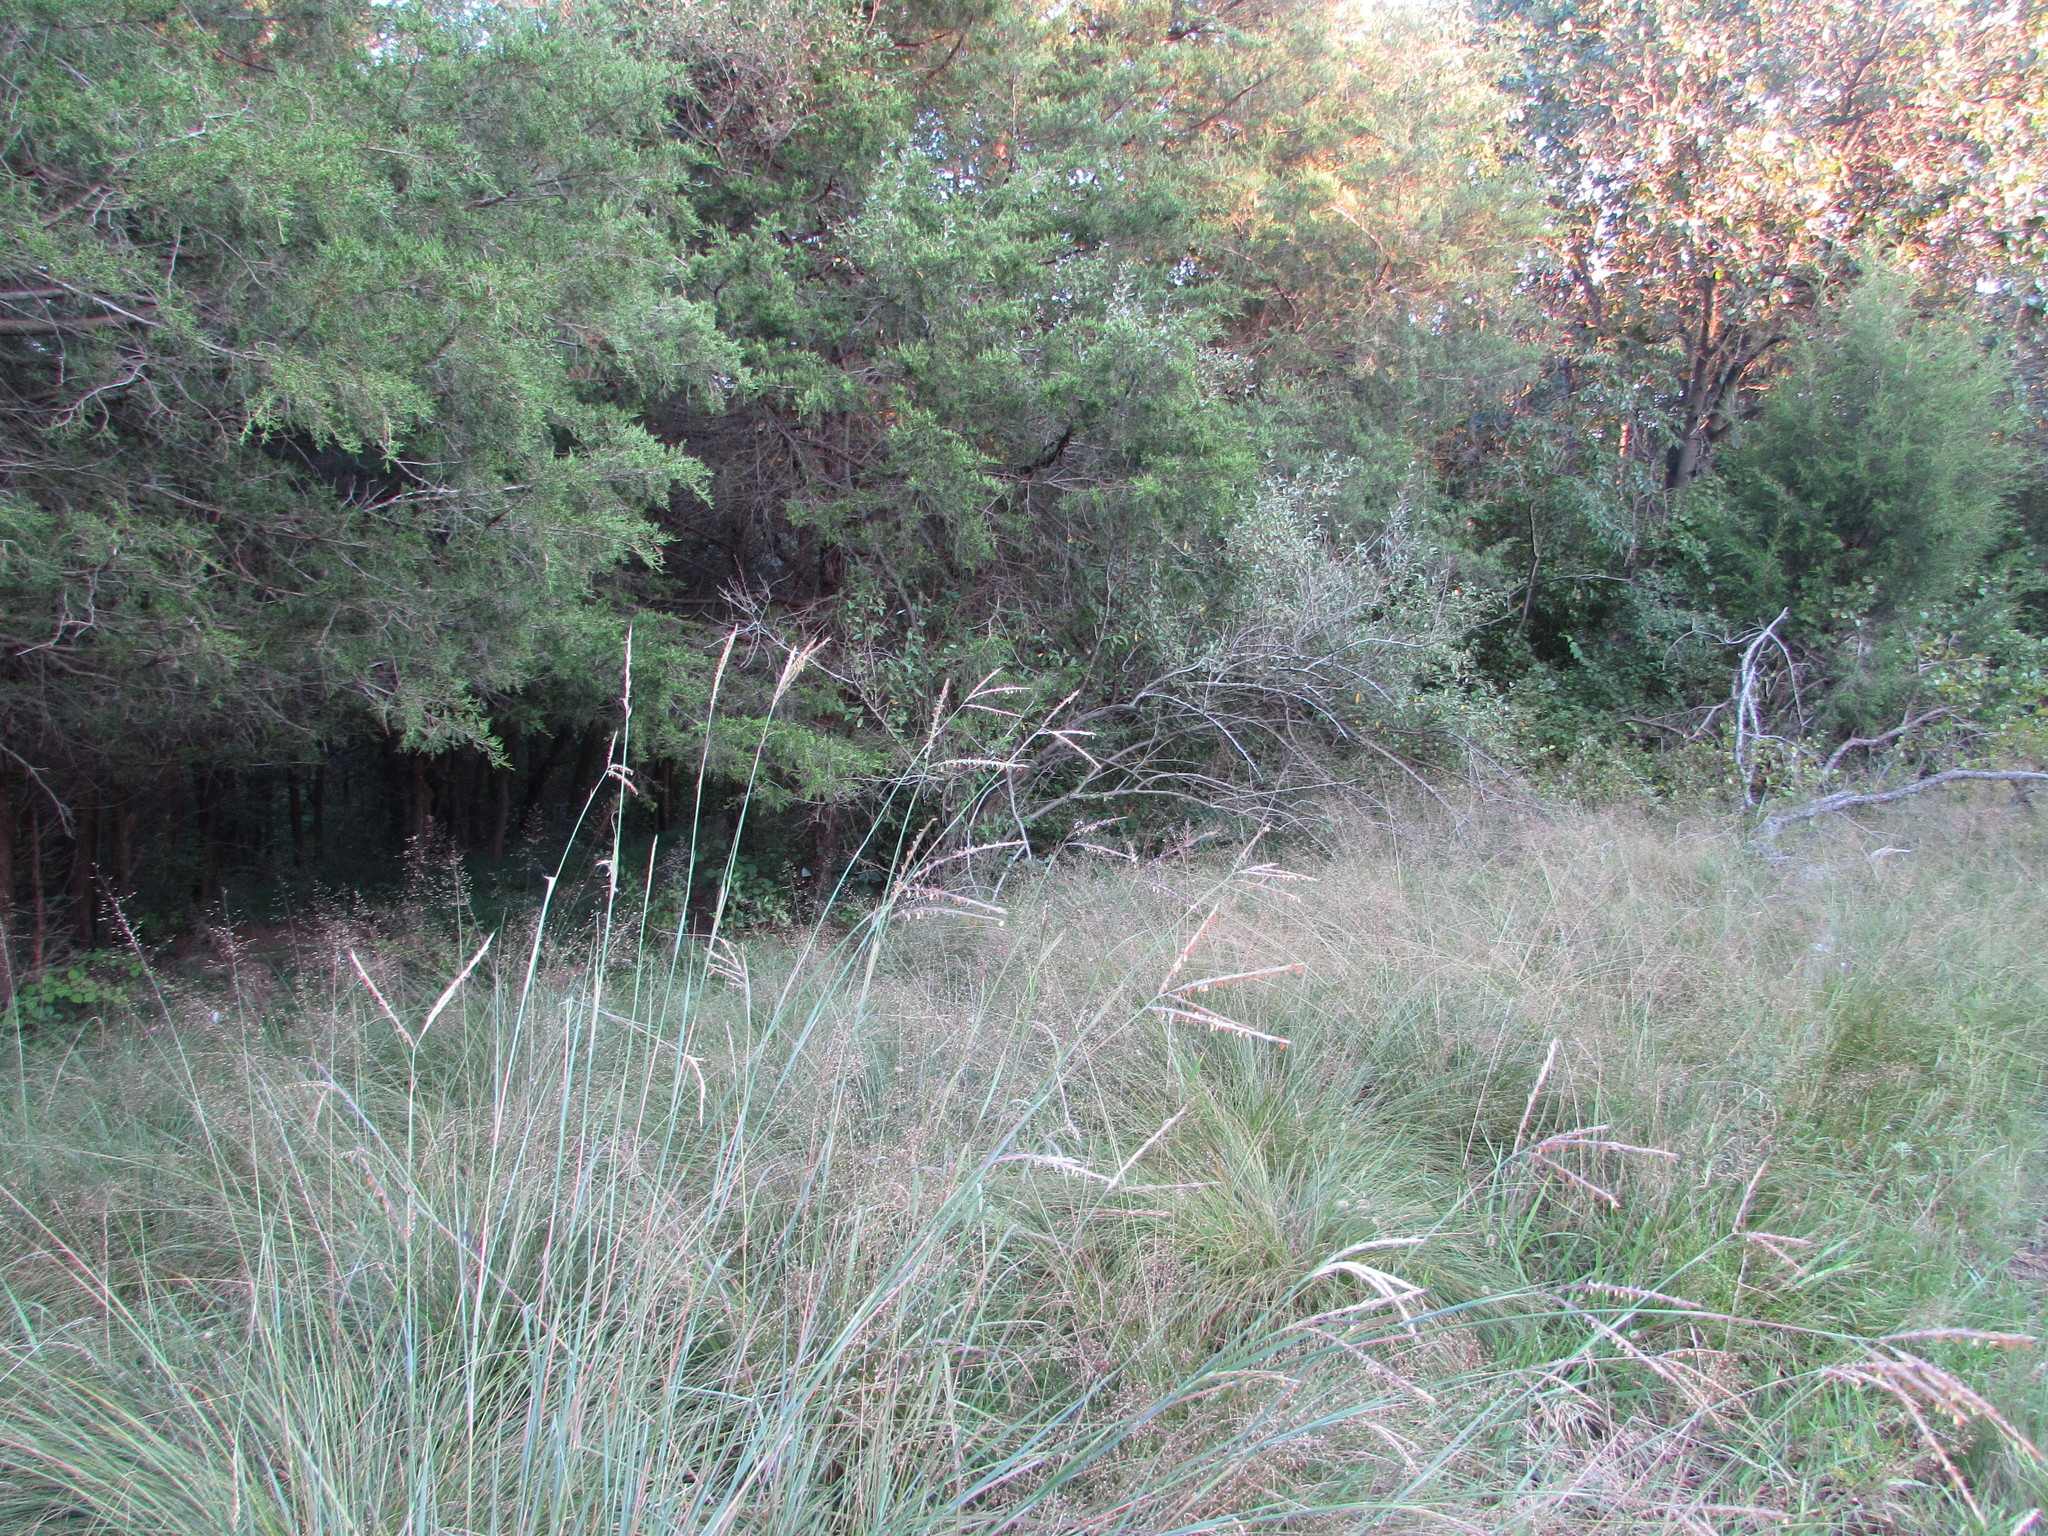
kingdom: Plantae
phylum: Tracheophyta
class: Liliopsida
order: Poales
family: Poaceae
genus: Andropogon
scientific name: Andropogon gerardi
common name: Big bluestem
